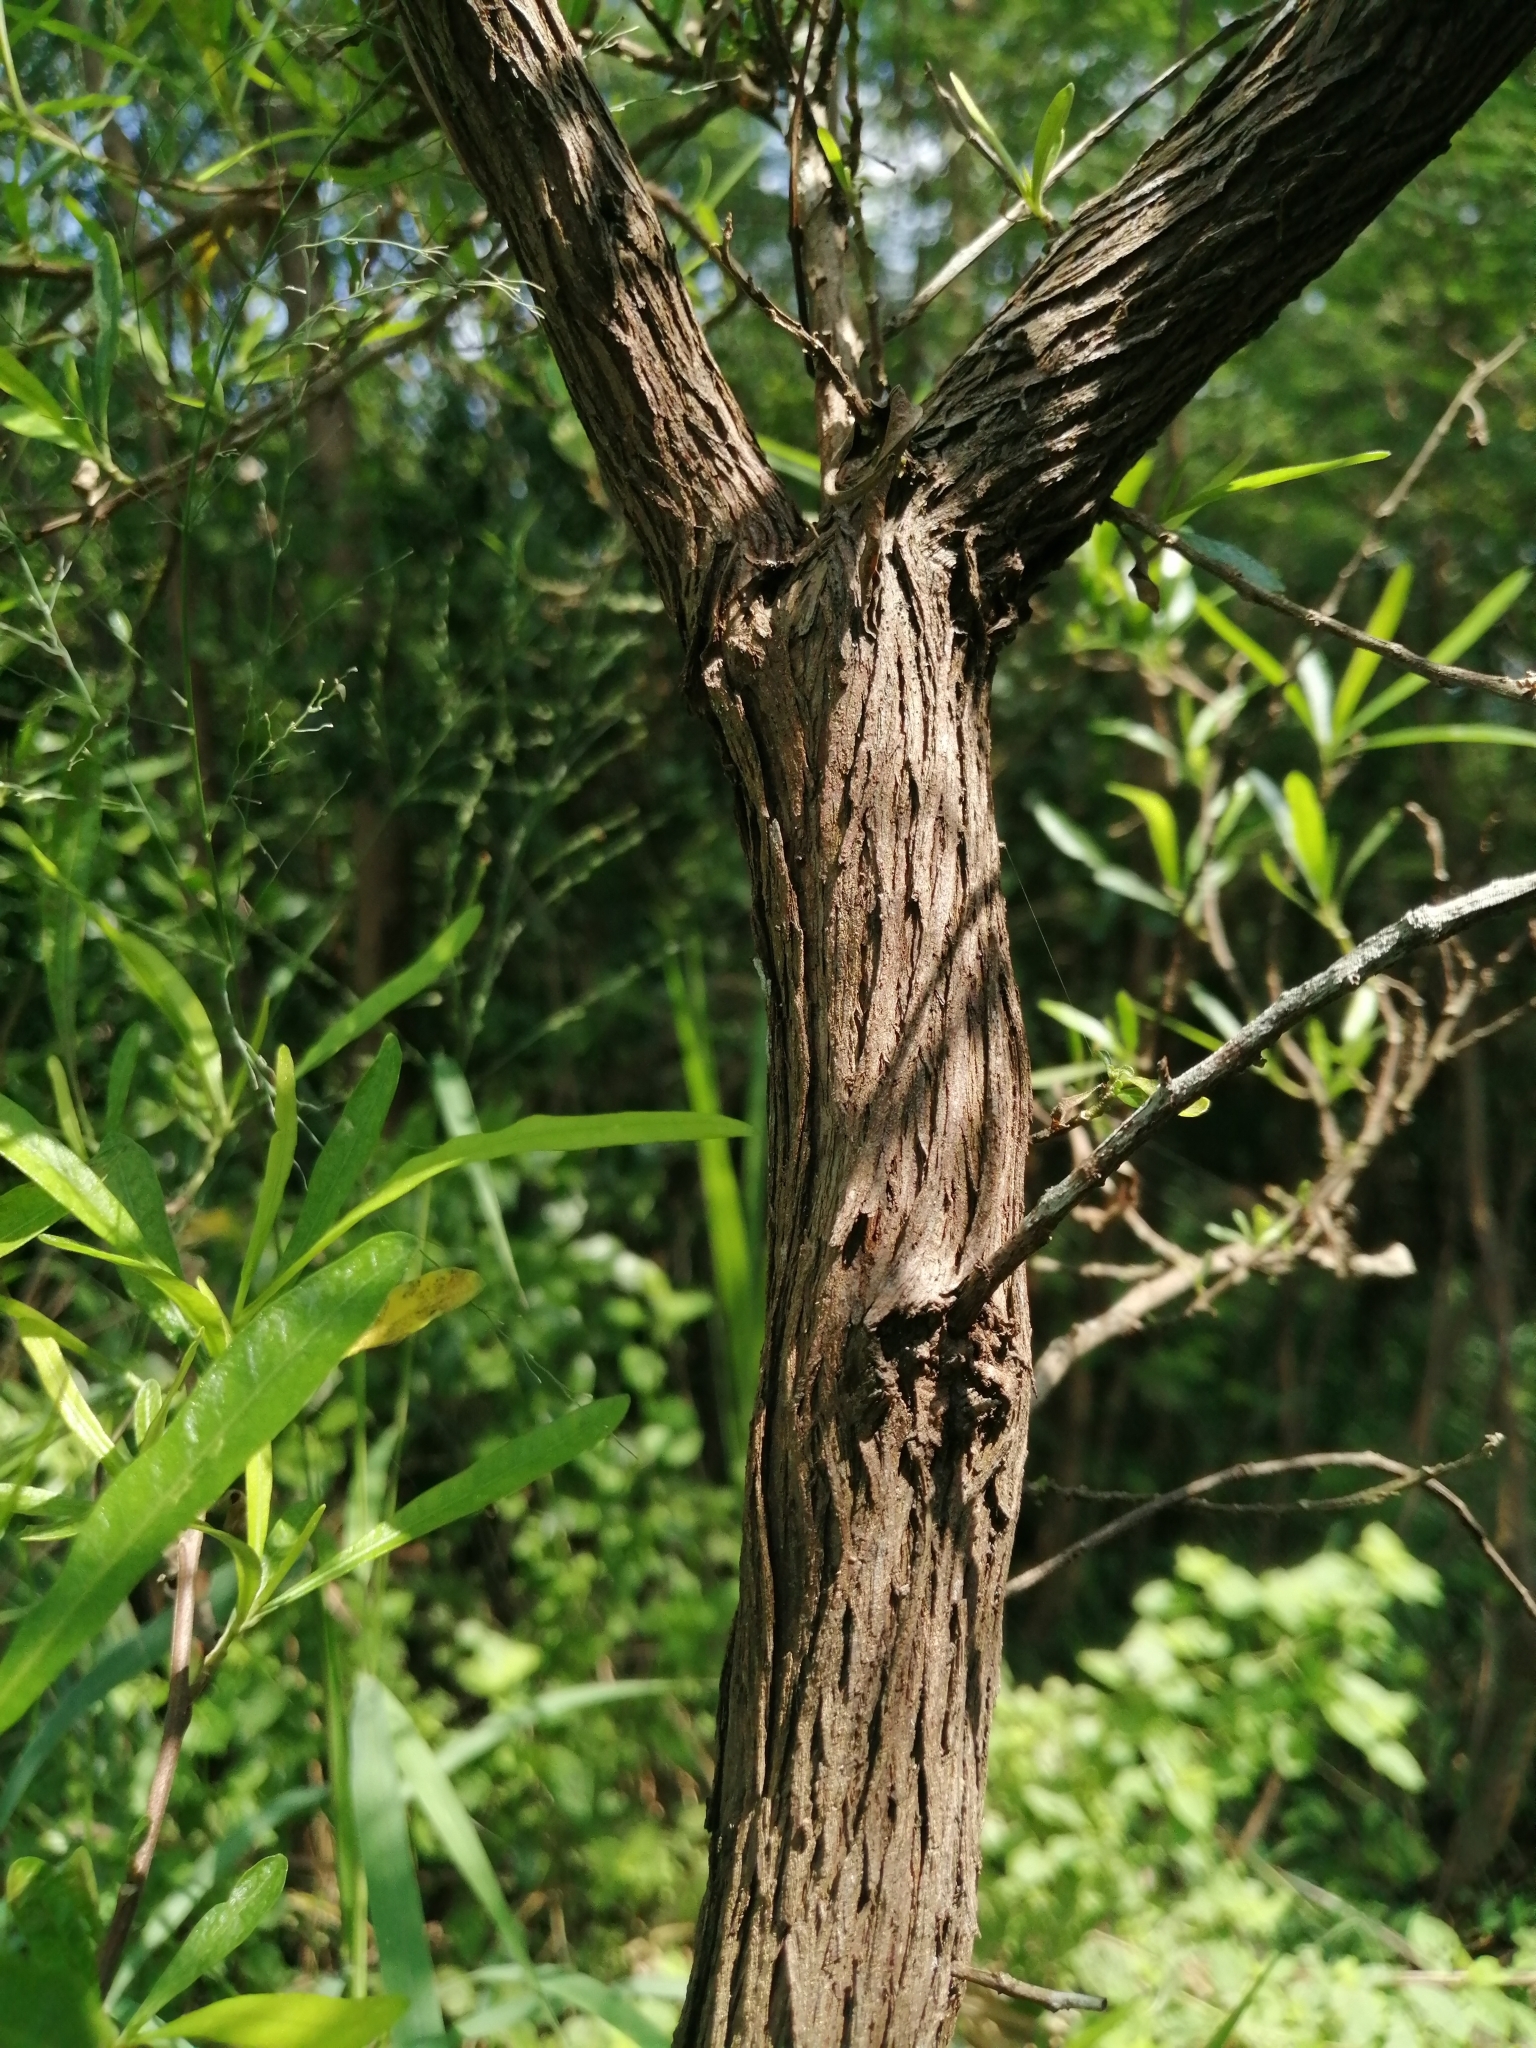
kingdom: Plantae
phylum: Tracheophyta
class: Magnoliopsida
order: Sapindales
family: Sapindaceae
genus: Dodonaea
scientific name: Dodonaea viscosa
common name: Hopbush
